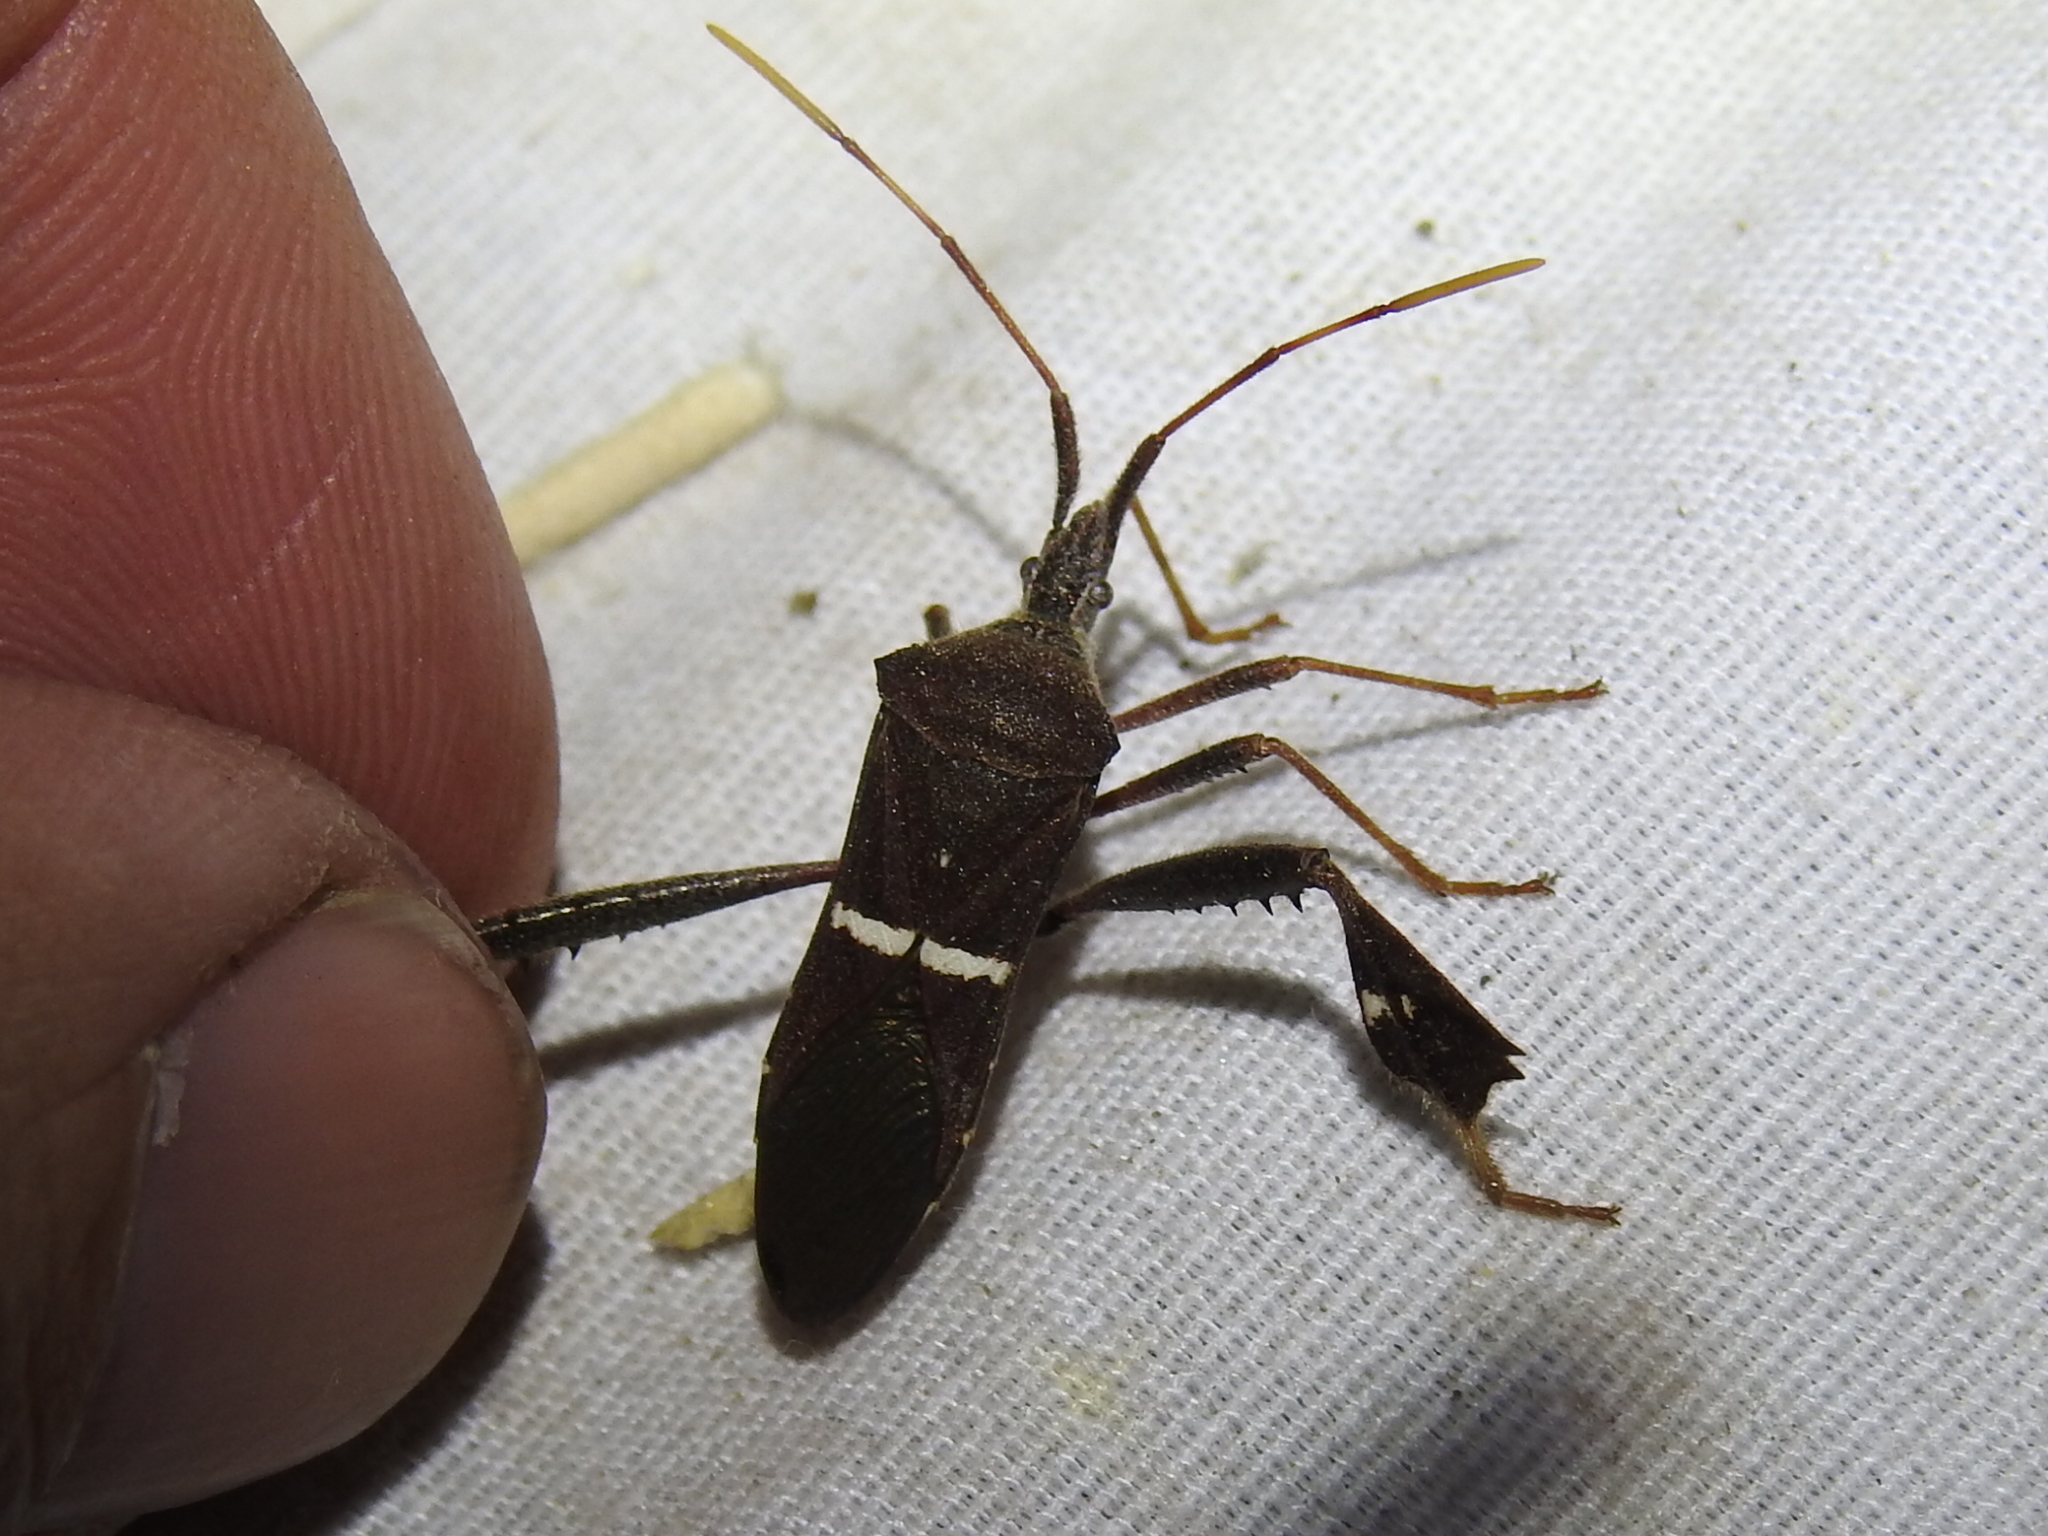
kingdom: Animalia
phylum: Arthropoda
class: Insecta
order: Hemiptera
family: Coreidae
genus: Leptoglossus
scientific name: Leptoglossus phyllopus
